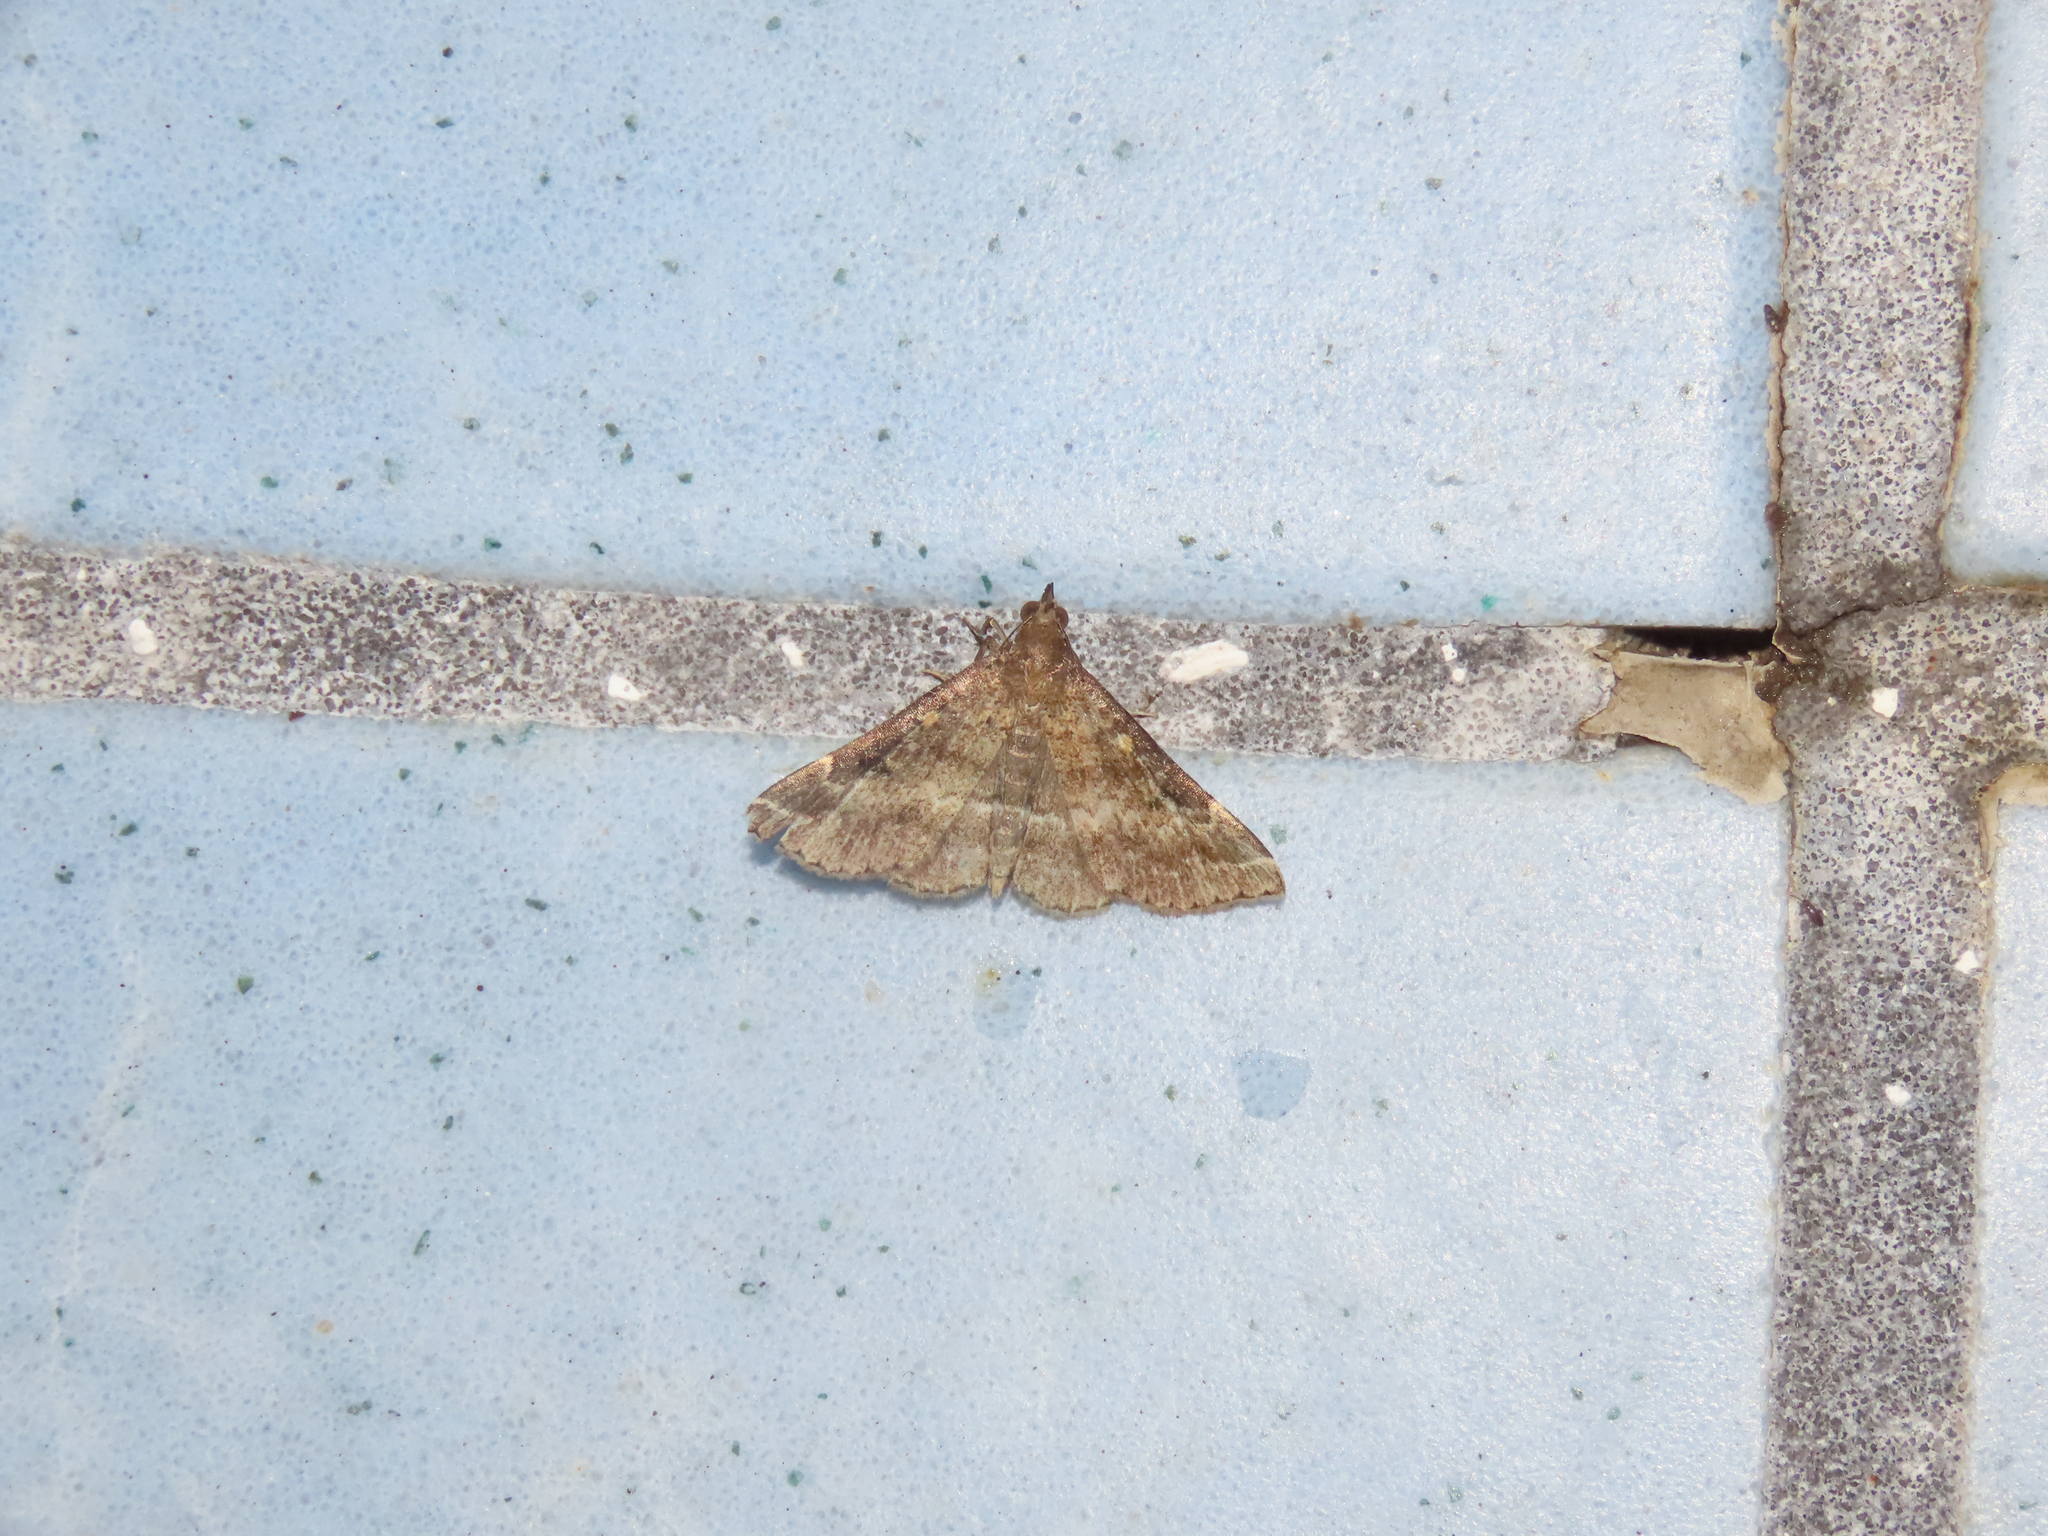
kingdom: Animalia
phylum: Arthropoda
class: Insecta
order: Lepidoptera
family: Erebidae
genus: Renia
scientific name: Renia factiosalis
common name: Sociable renia moth
